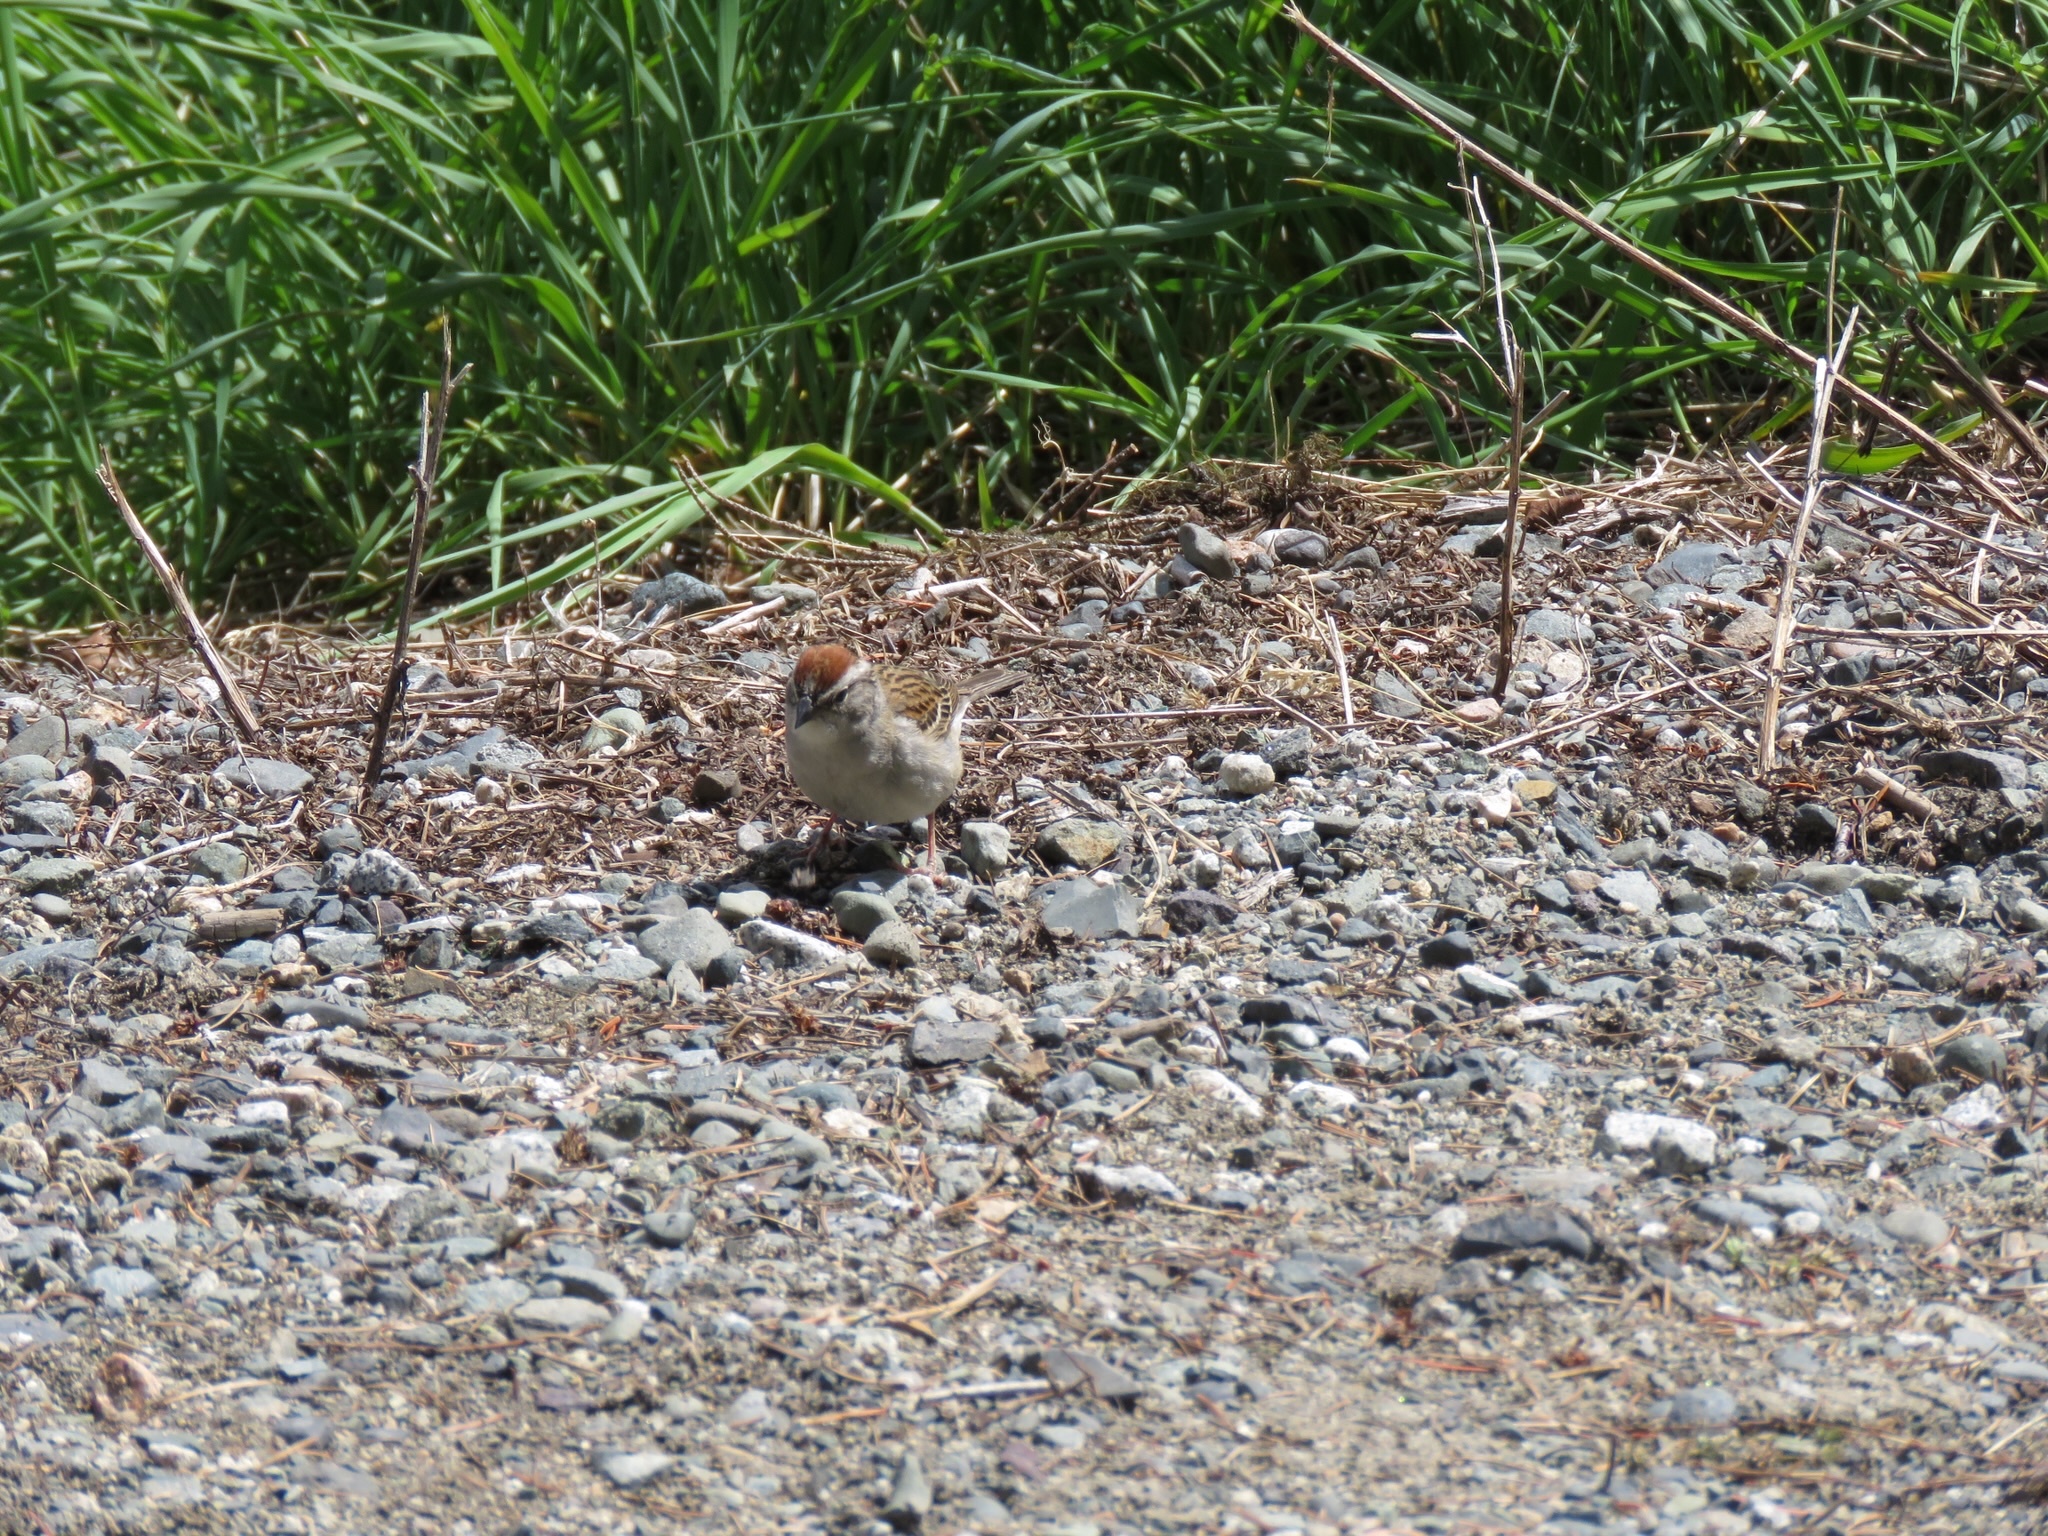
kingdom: Animalia
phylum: Chordata
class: Aves
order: Passeriformes
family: Passerellidae
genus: Spizella
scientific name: Spizella passerina
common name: Chipping sparrow
